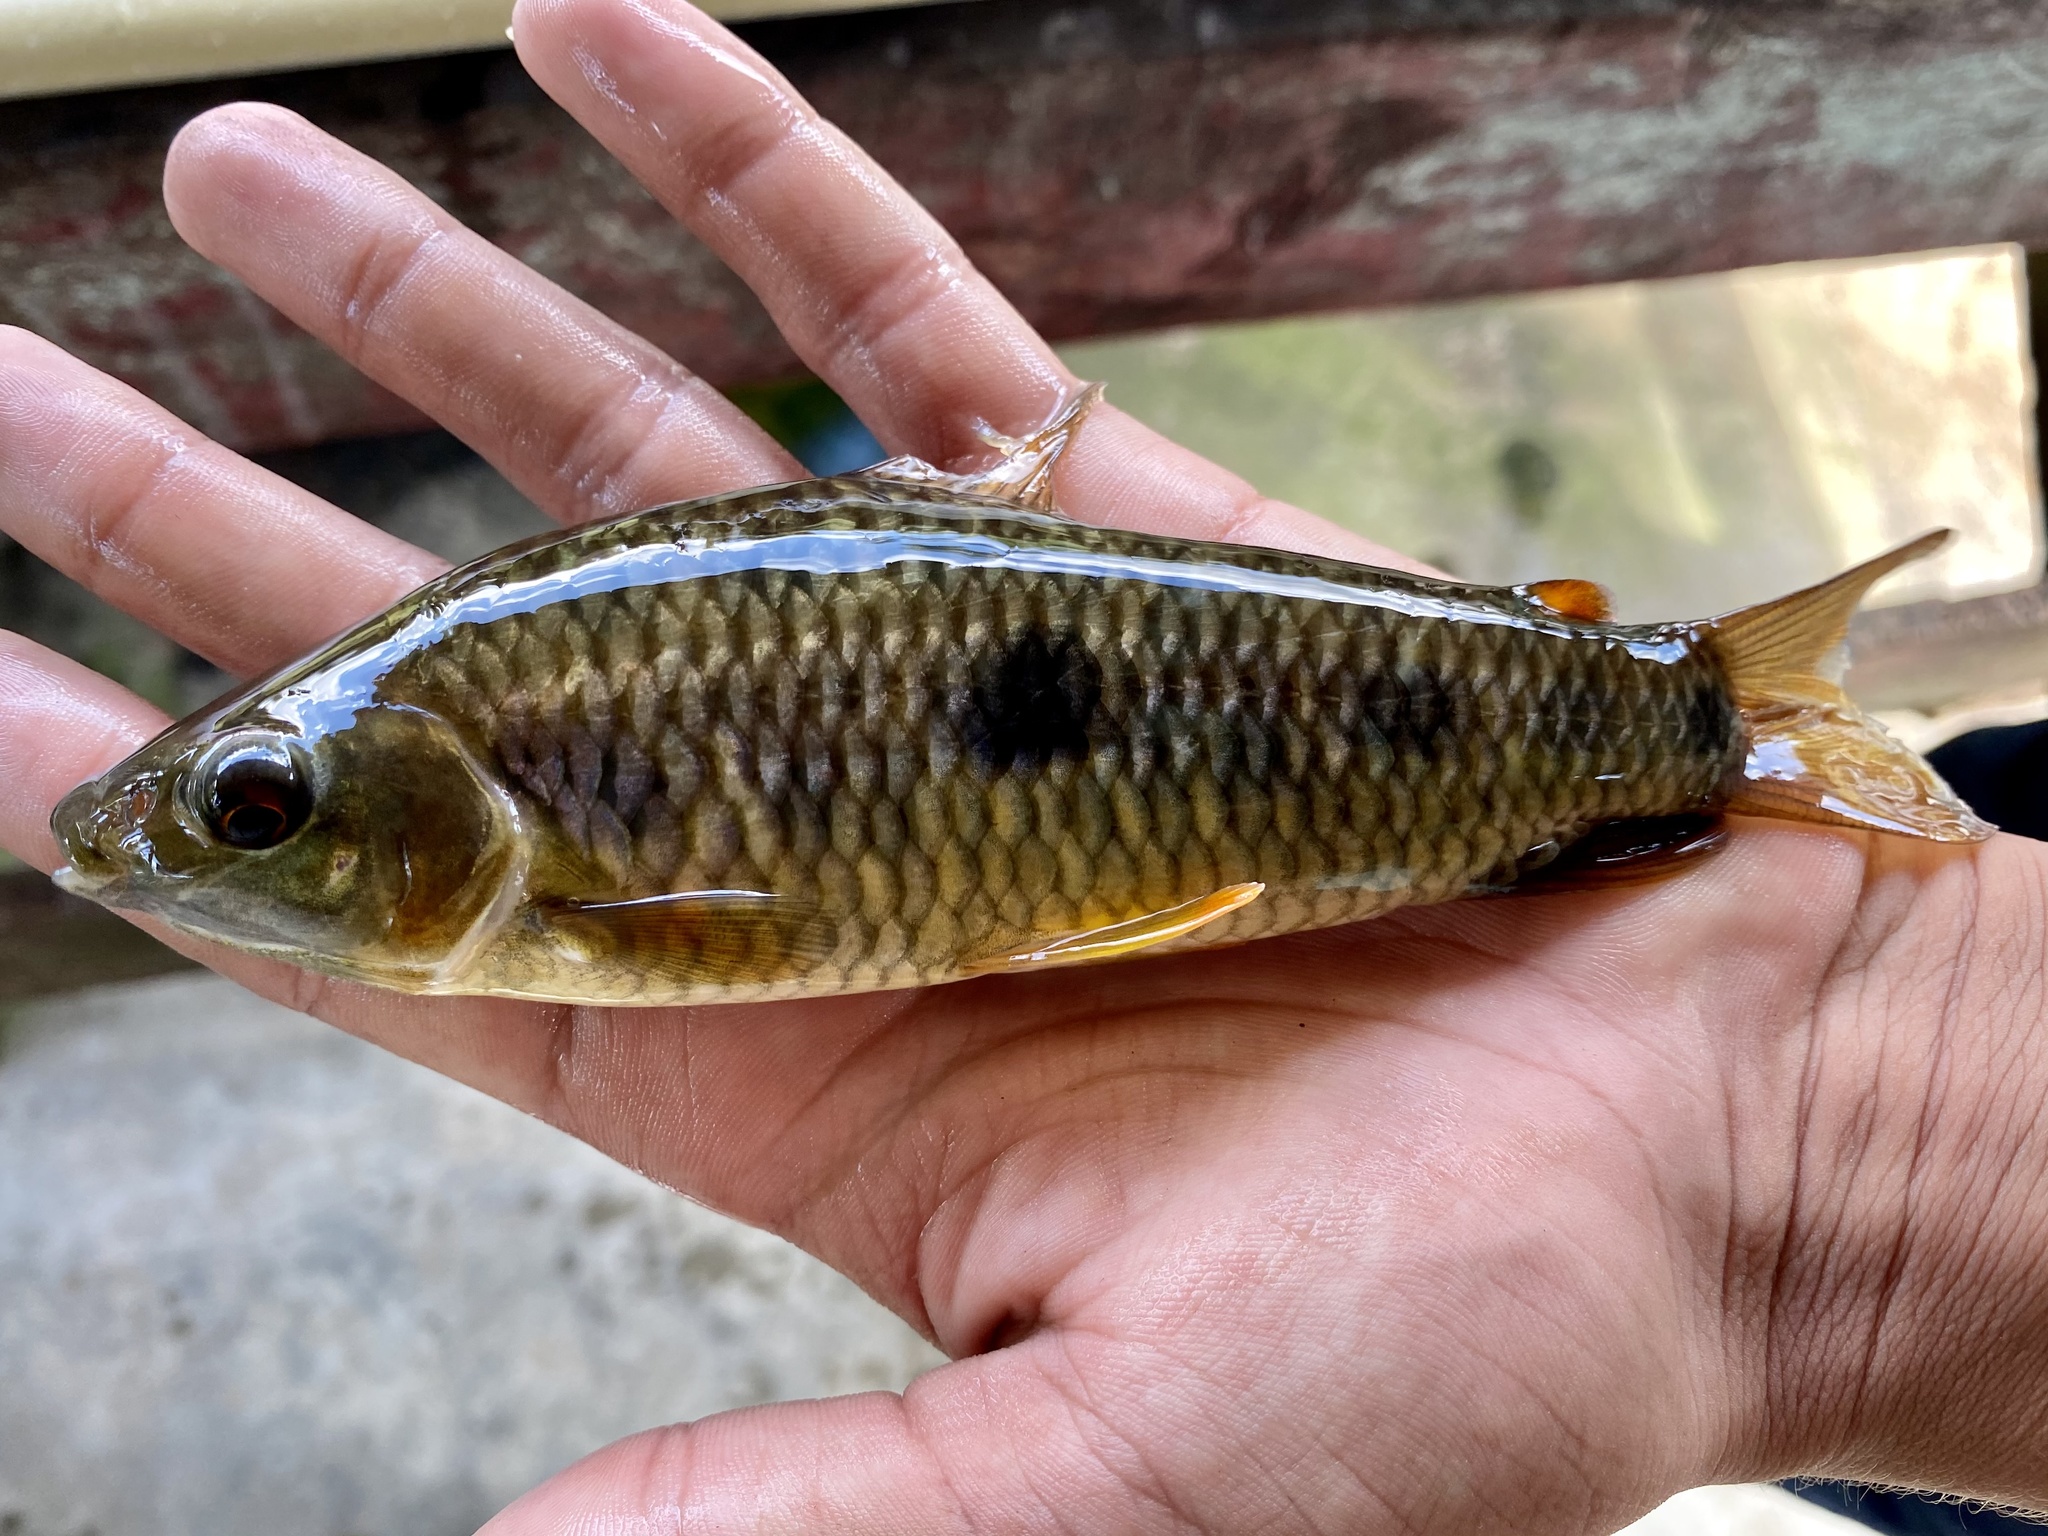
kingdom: Animalia
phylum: Chordata
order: Characiformes
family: Anostomidae
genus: Leporinus
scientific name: Leporinus bahiensis
